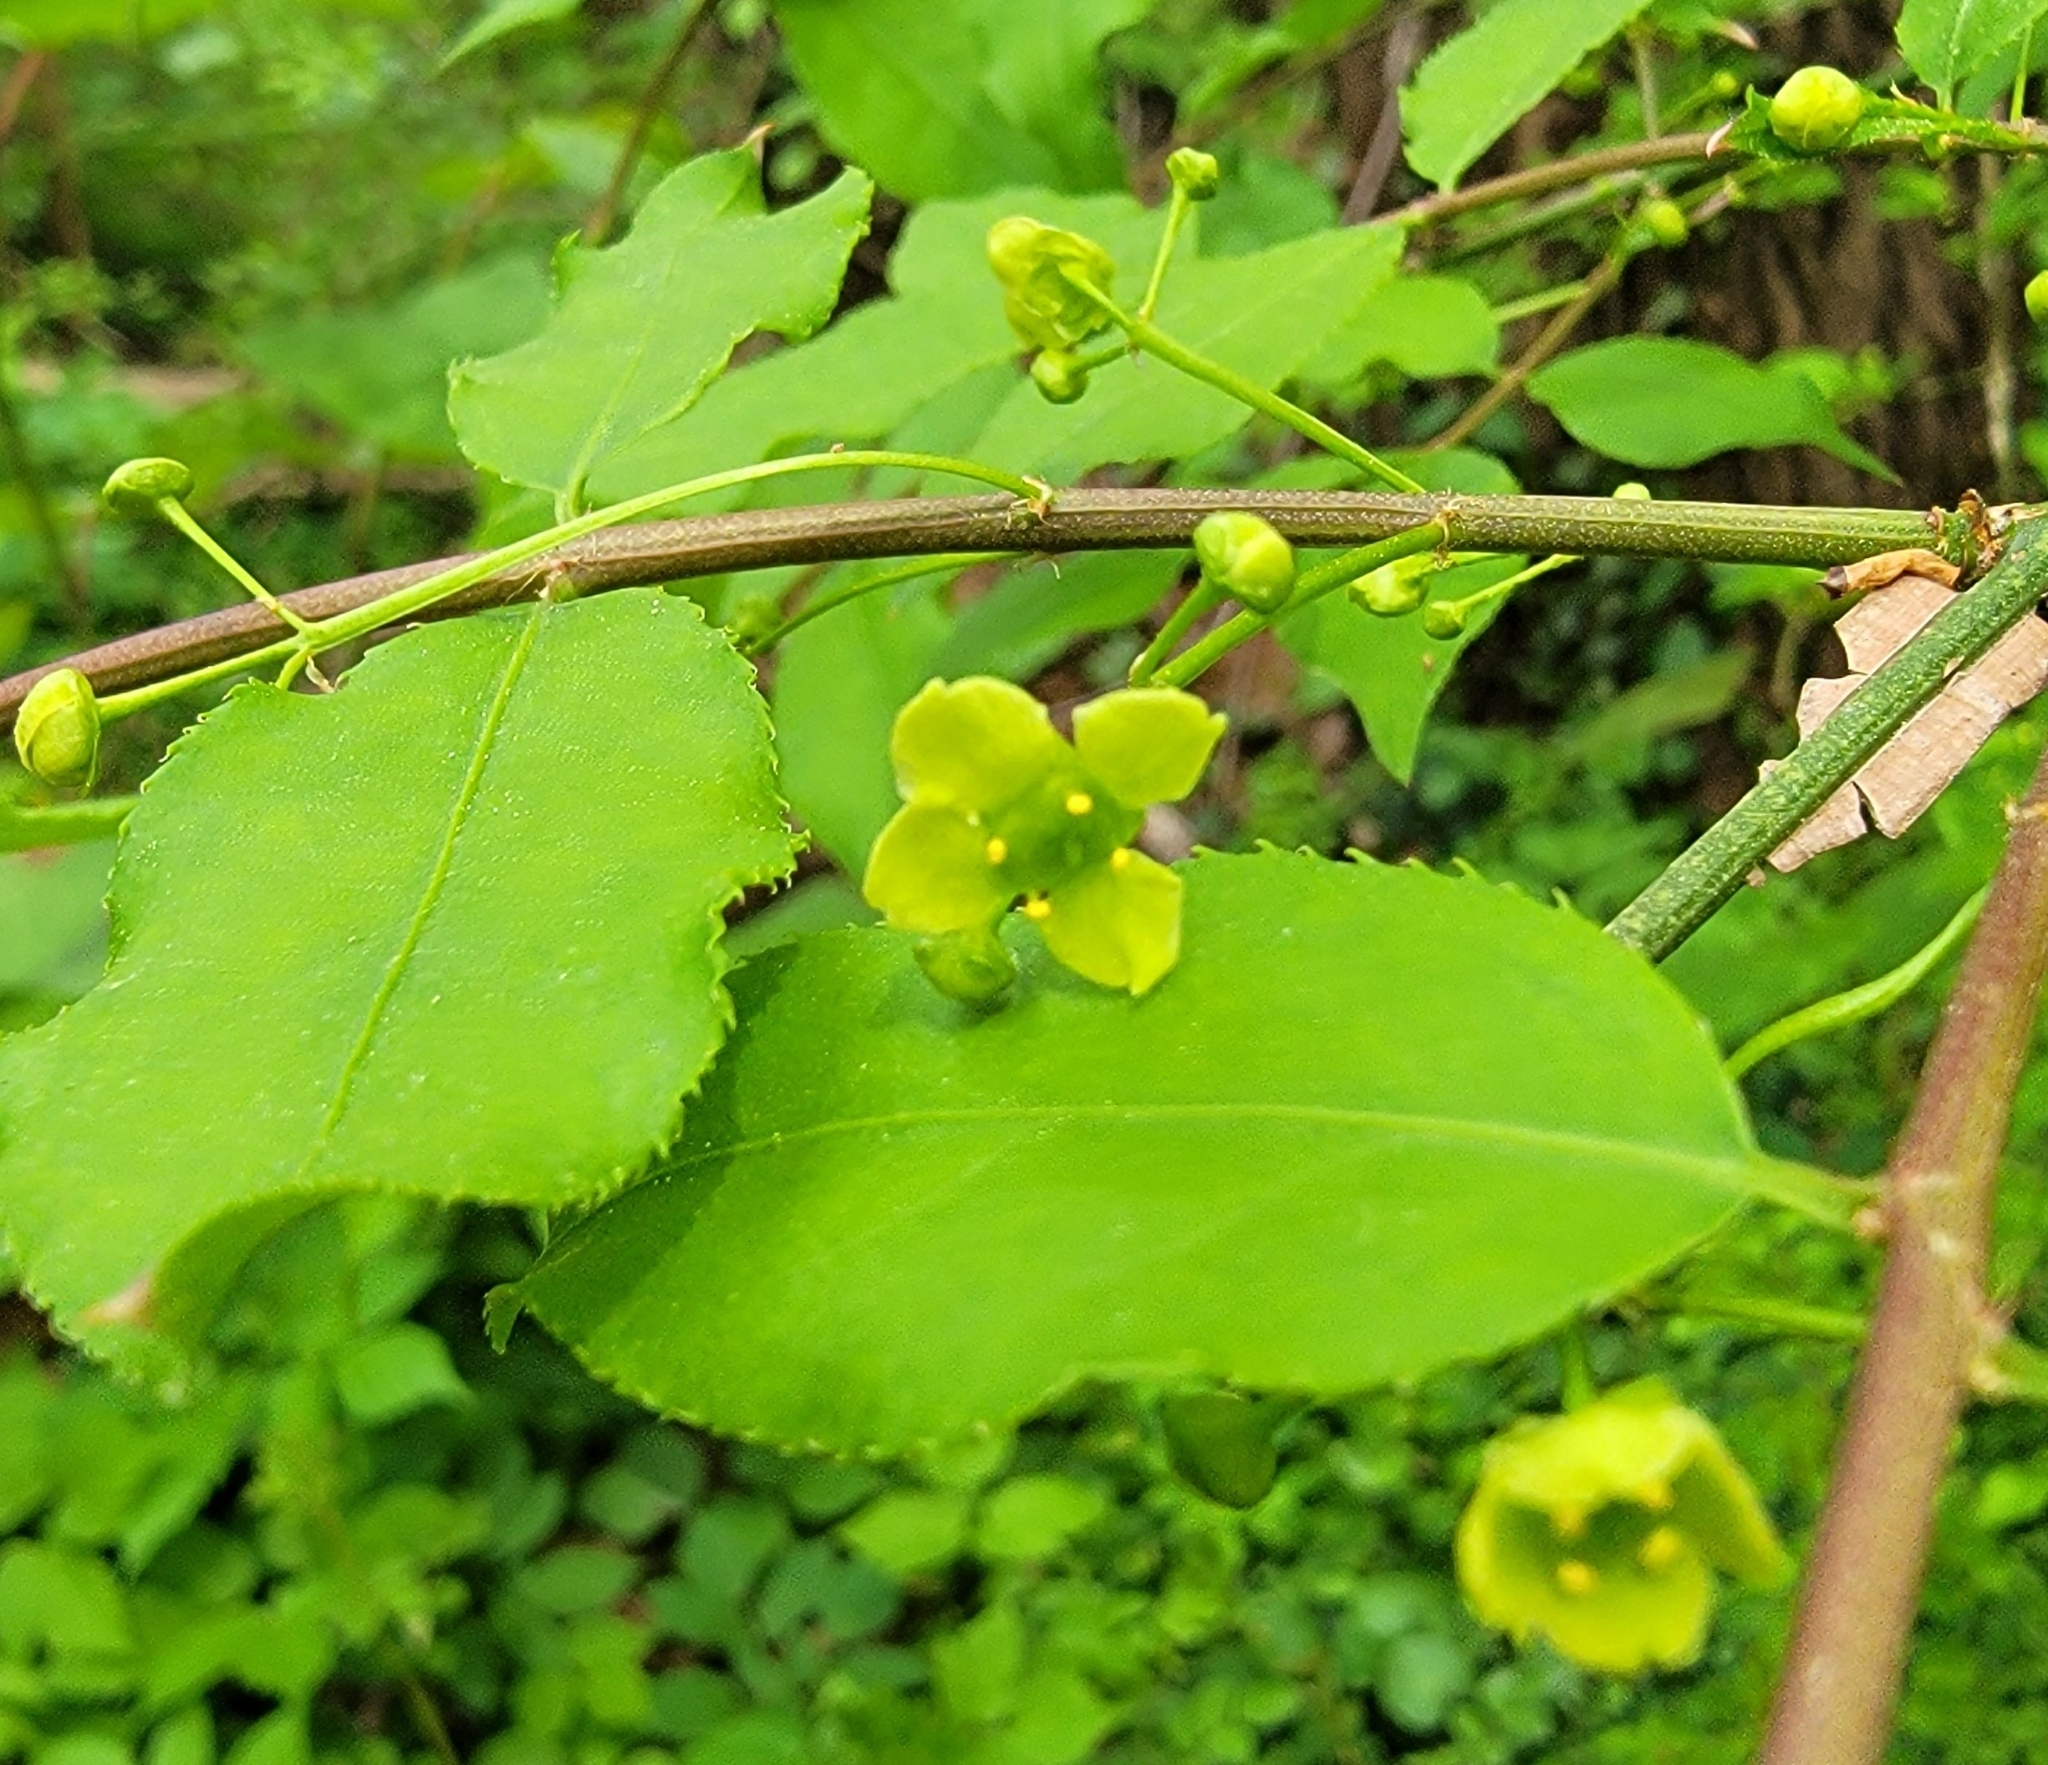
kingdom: Plantae
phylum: Tracheophyta
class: Magnoliopsida
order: Celastrales
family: Celastraceae
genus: Euonymus
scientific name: Euonymus alatus
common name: Winged euonymus
